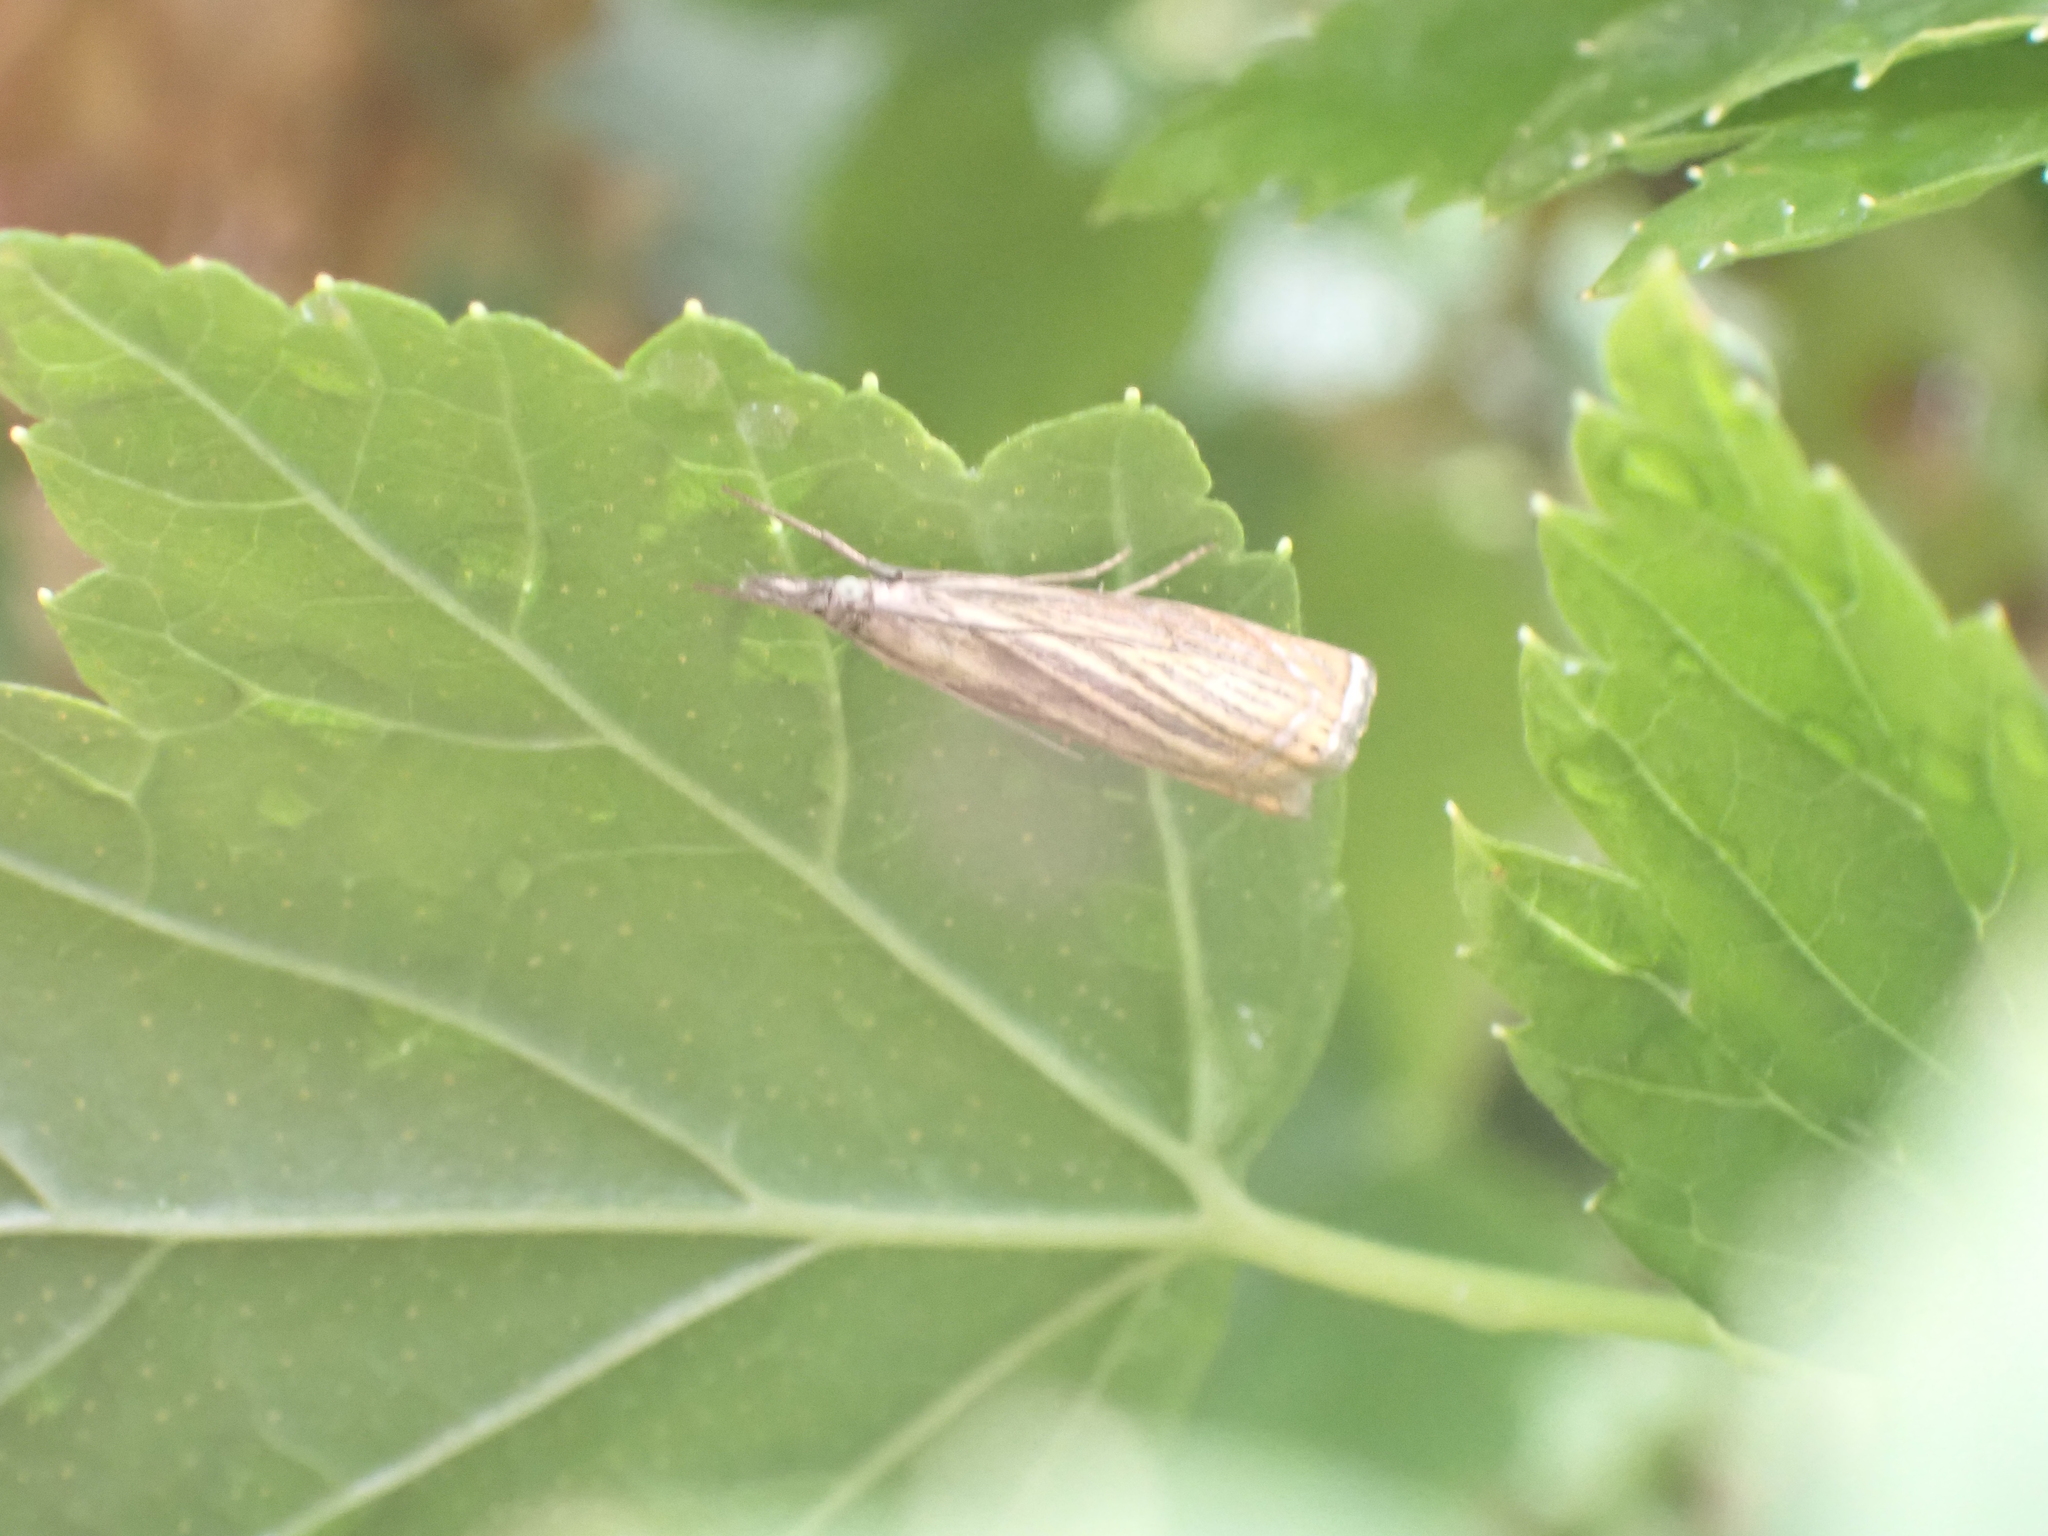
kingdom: Animalia
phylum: Arthropoda
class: Insecta
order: Lepidoptera
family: Crambidae
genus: Chrysoteuchia
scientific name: Chrysoteuchia culmella
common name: Garden grass-veneer
